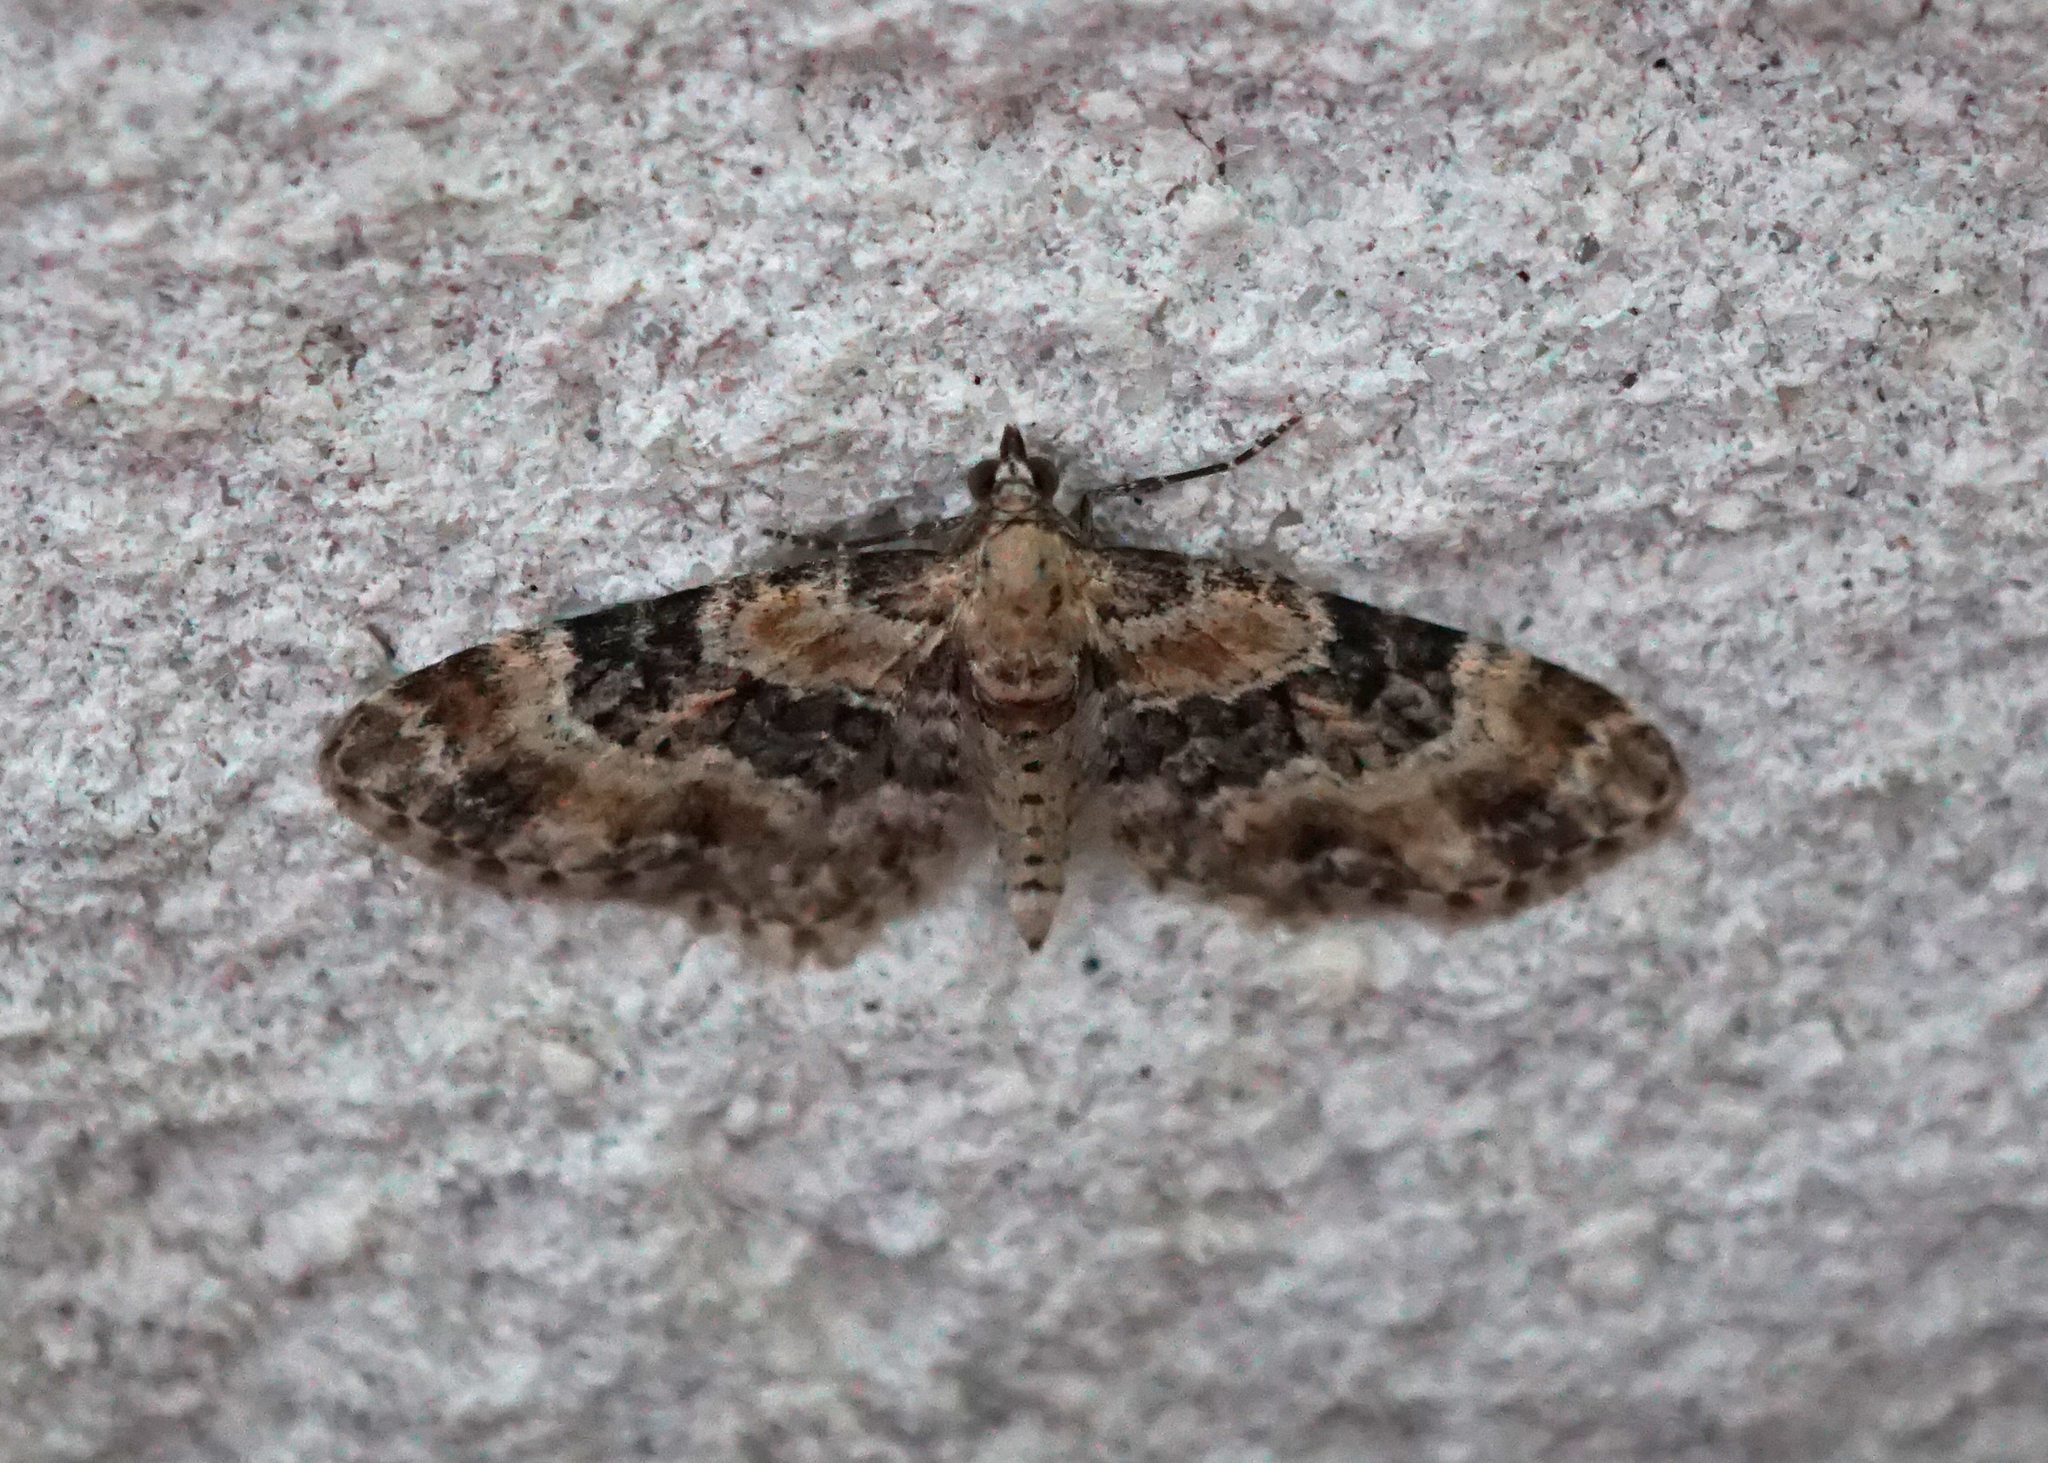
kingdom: Animalia
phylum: Arthropoda
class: Insecta
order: Lepidoptera
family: Geometridae
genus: Eupithecia
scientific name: Eupithecia pulchellata
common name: Foxglove pug
